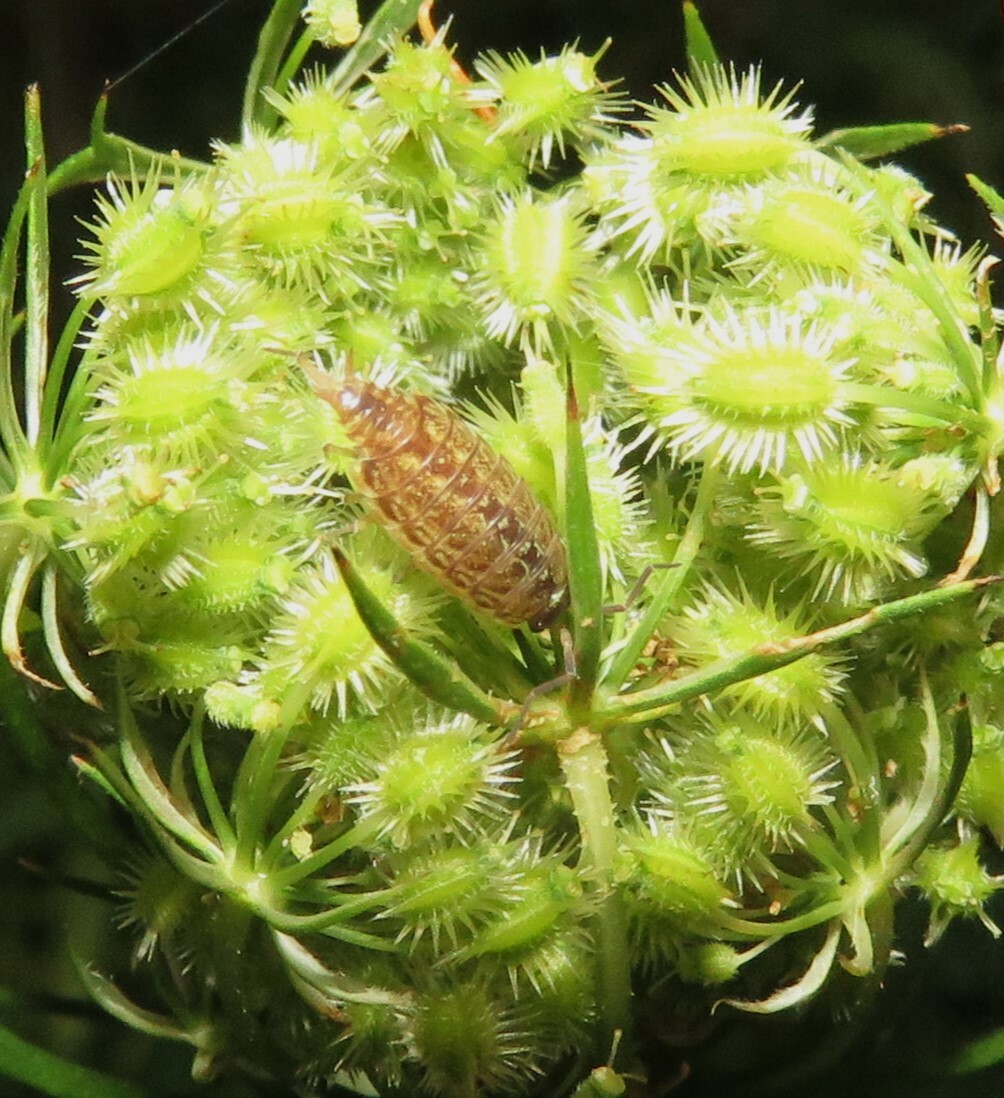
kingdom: Animalia
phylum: Arthropoda
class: Malacostraca
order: Isopoda
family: Philosciidae
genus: Philoscia
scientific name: Philoscia muscorum
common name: Common striped woodlouse
